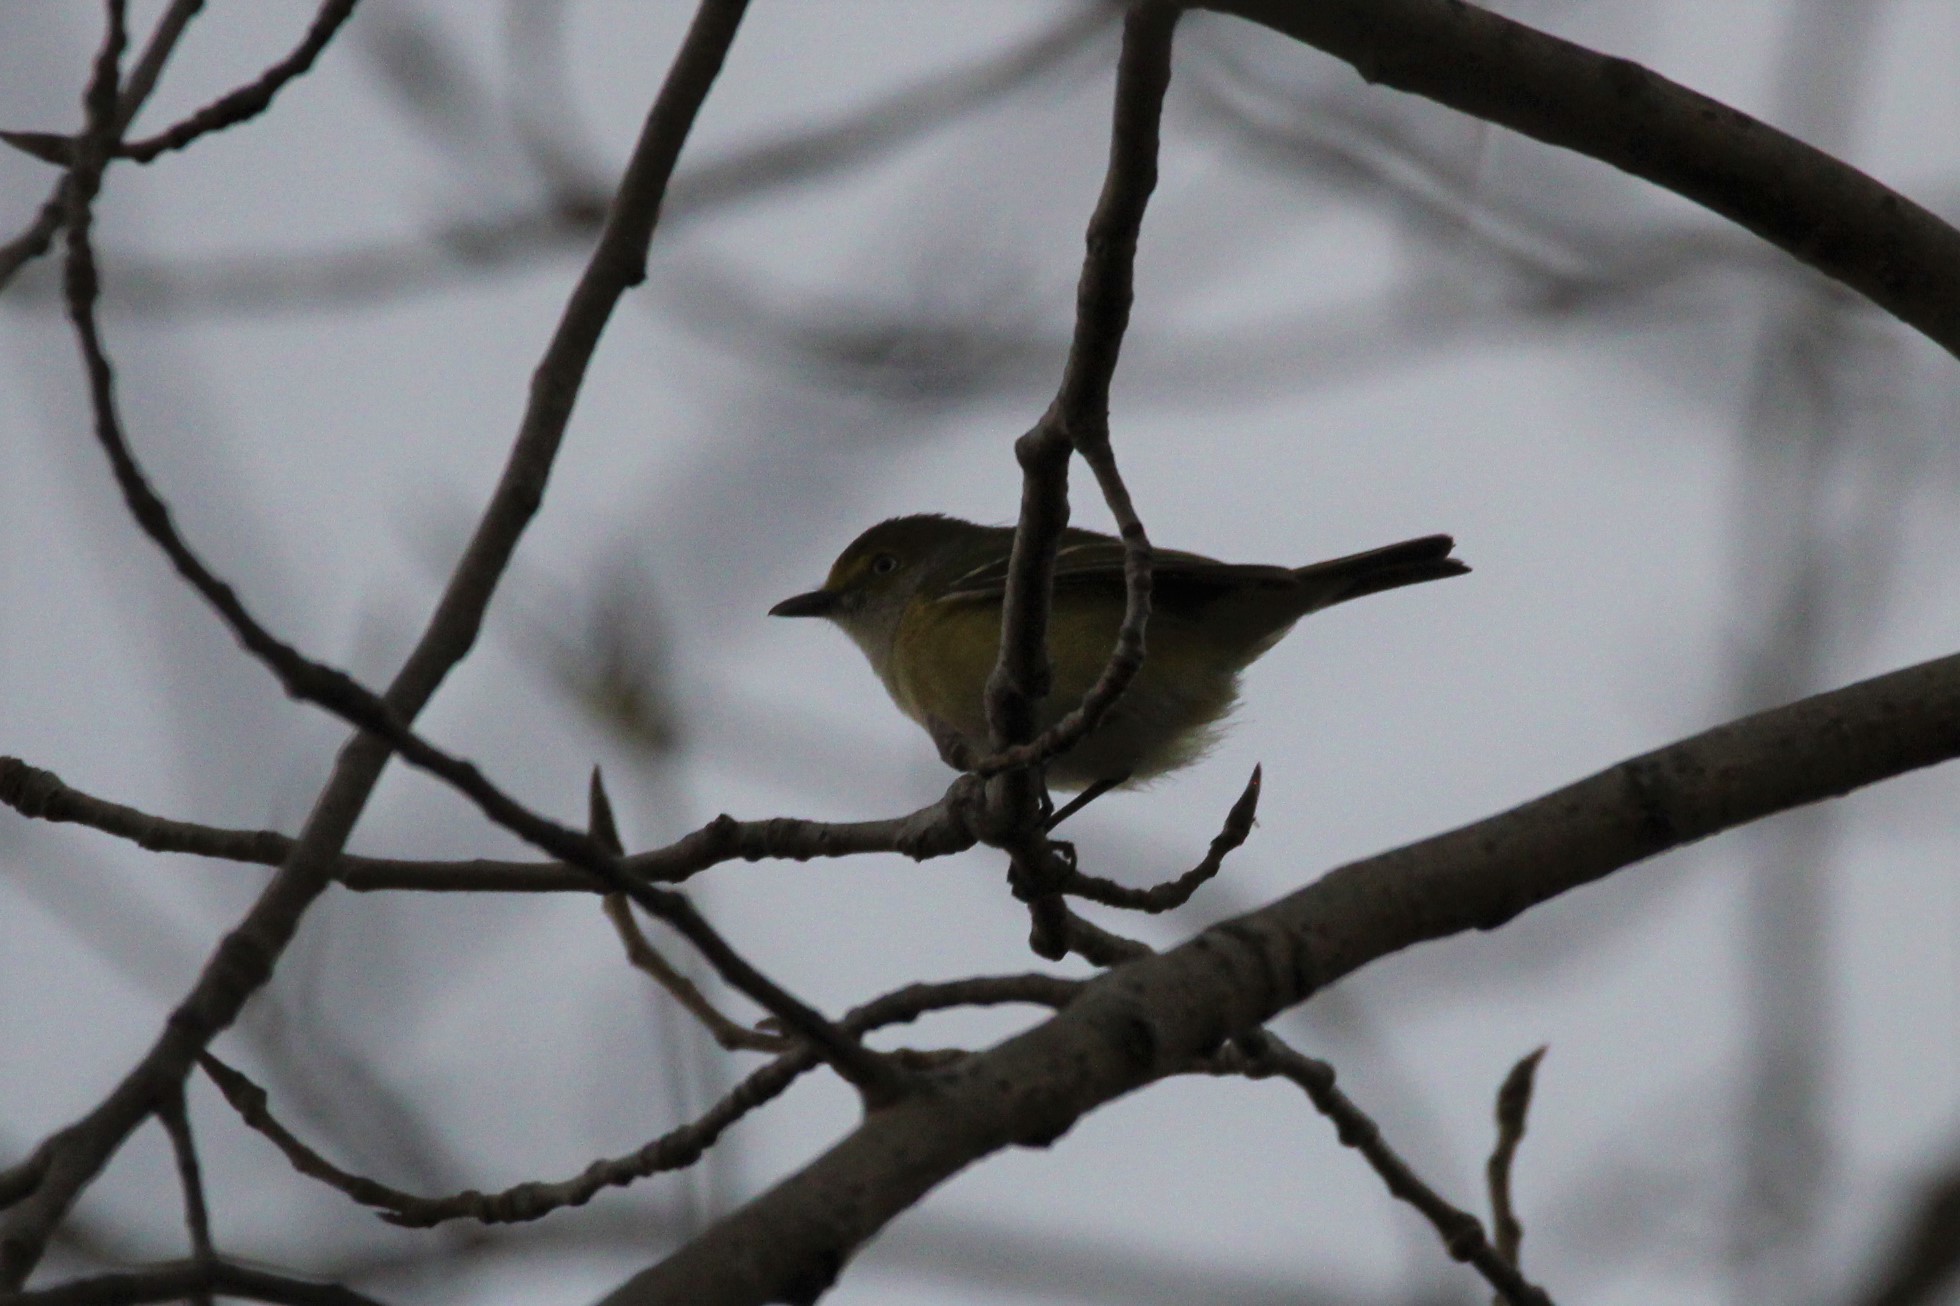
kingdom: Animalia
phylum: Chordata
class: Aves
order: Passeriformes
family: Vireonidae
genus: Vireo
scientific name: Vireo griseus
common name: White-eyed vireo
